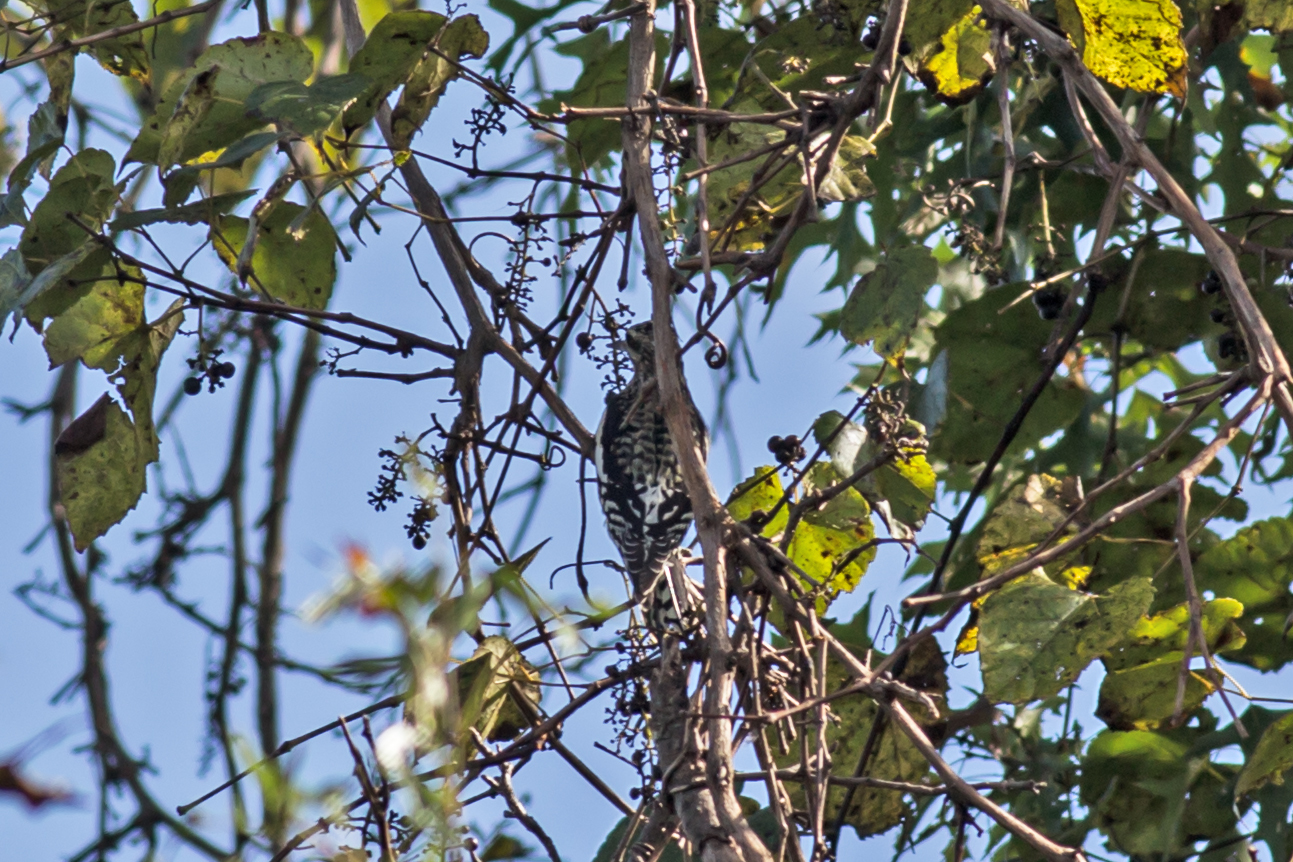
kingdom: Animalia
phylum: Chordata
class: Aves
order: Piciformes
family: Picidae
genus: Sphyrapicus
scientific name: Sphyrapicus varius
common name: Yellow-bellied sapsucker
